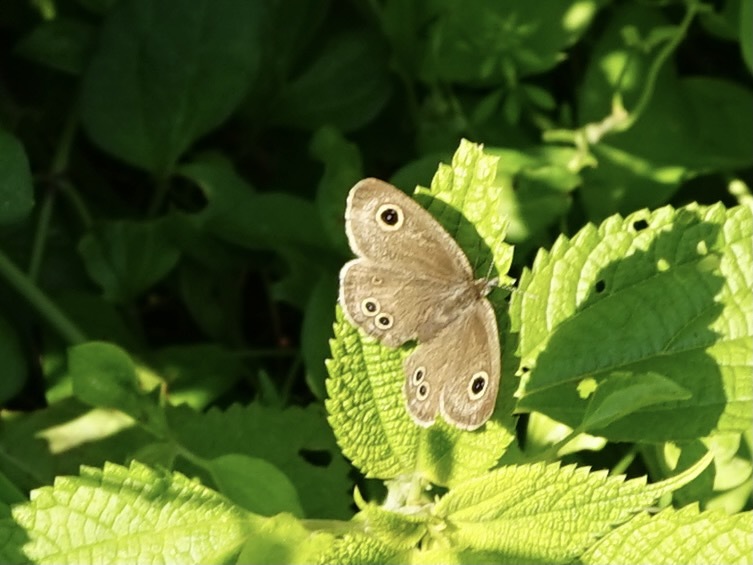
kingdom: Animalia
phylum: Arthropoda
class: Insecta
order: Lepidoptera
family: Nymphalidae
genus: Ypthima
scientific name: Ypthima argus
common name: Common fivering
